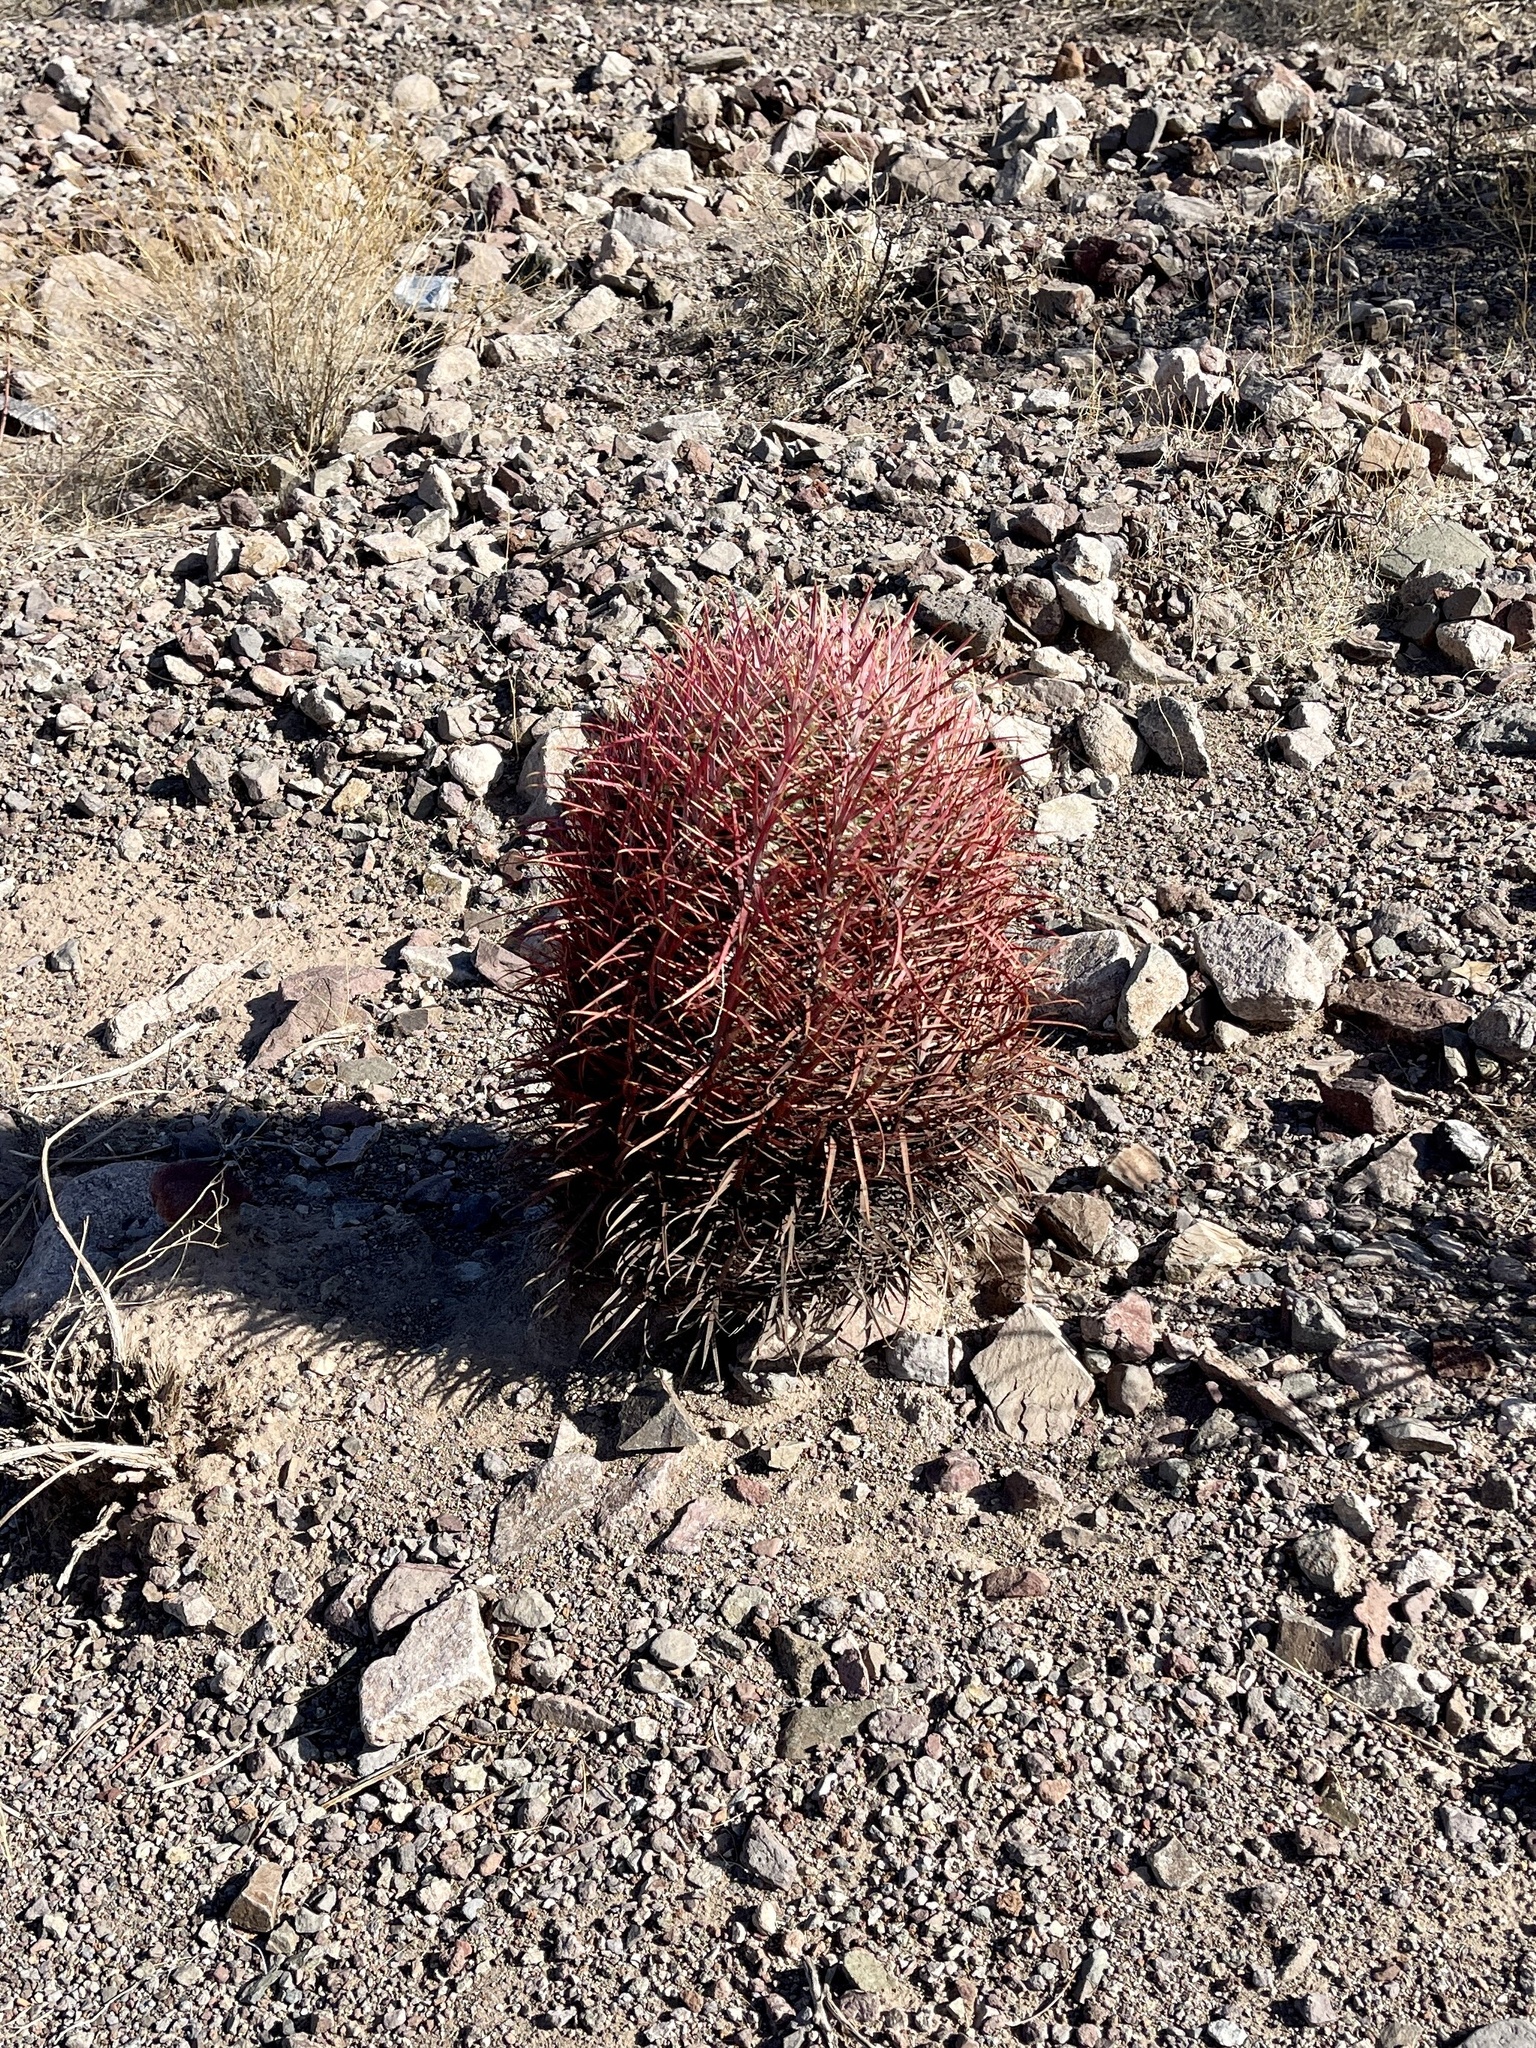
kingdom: Plantae
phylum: Tracheophyta
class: Magnoliopsida
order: Caryophyllales
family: Cactaceae
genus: Ferocactus
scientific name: Ferocactus cylindraceus
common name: California barrel cactus
